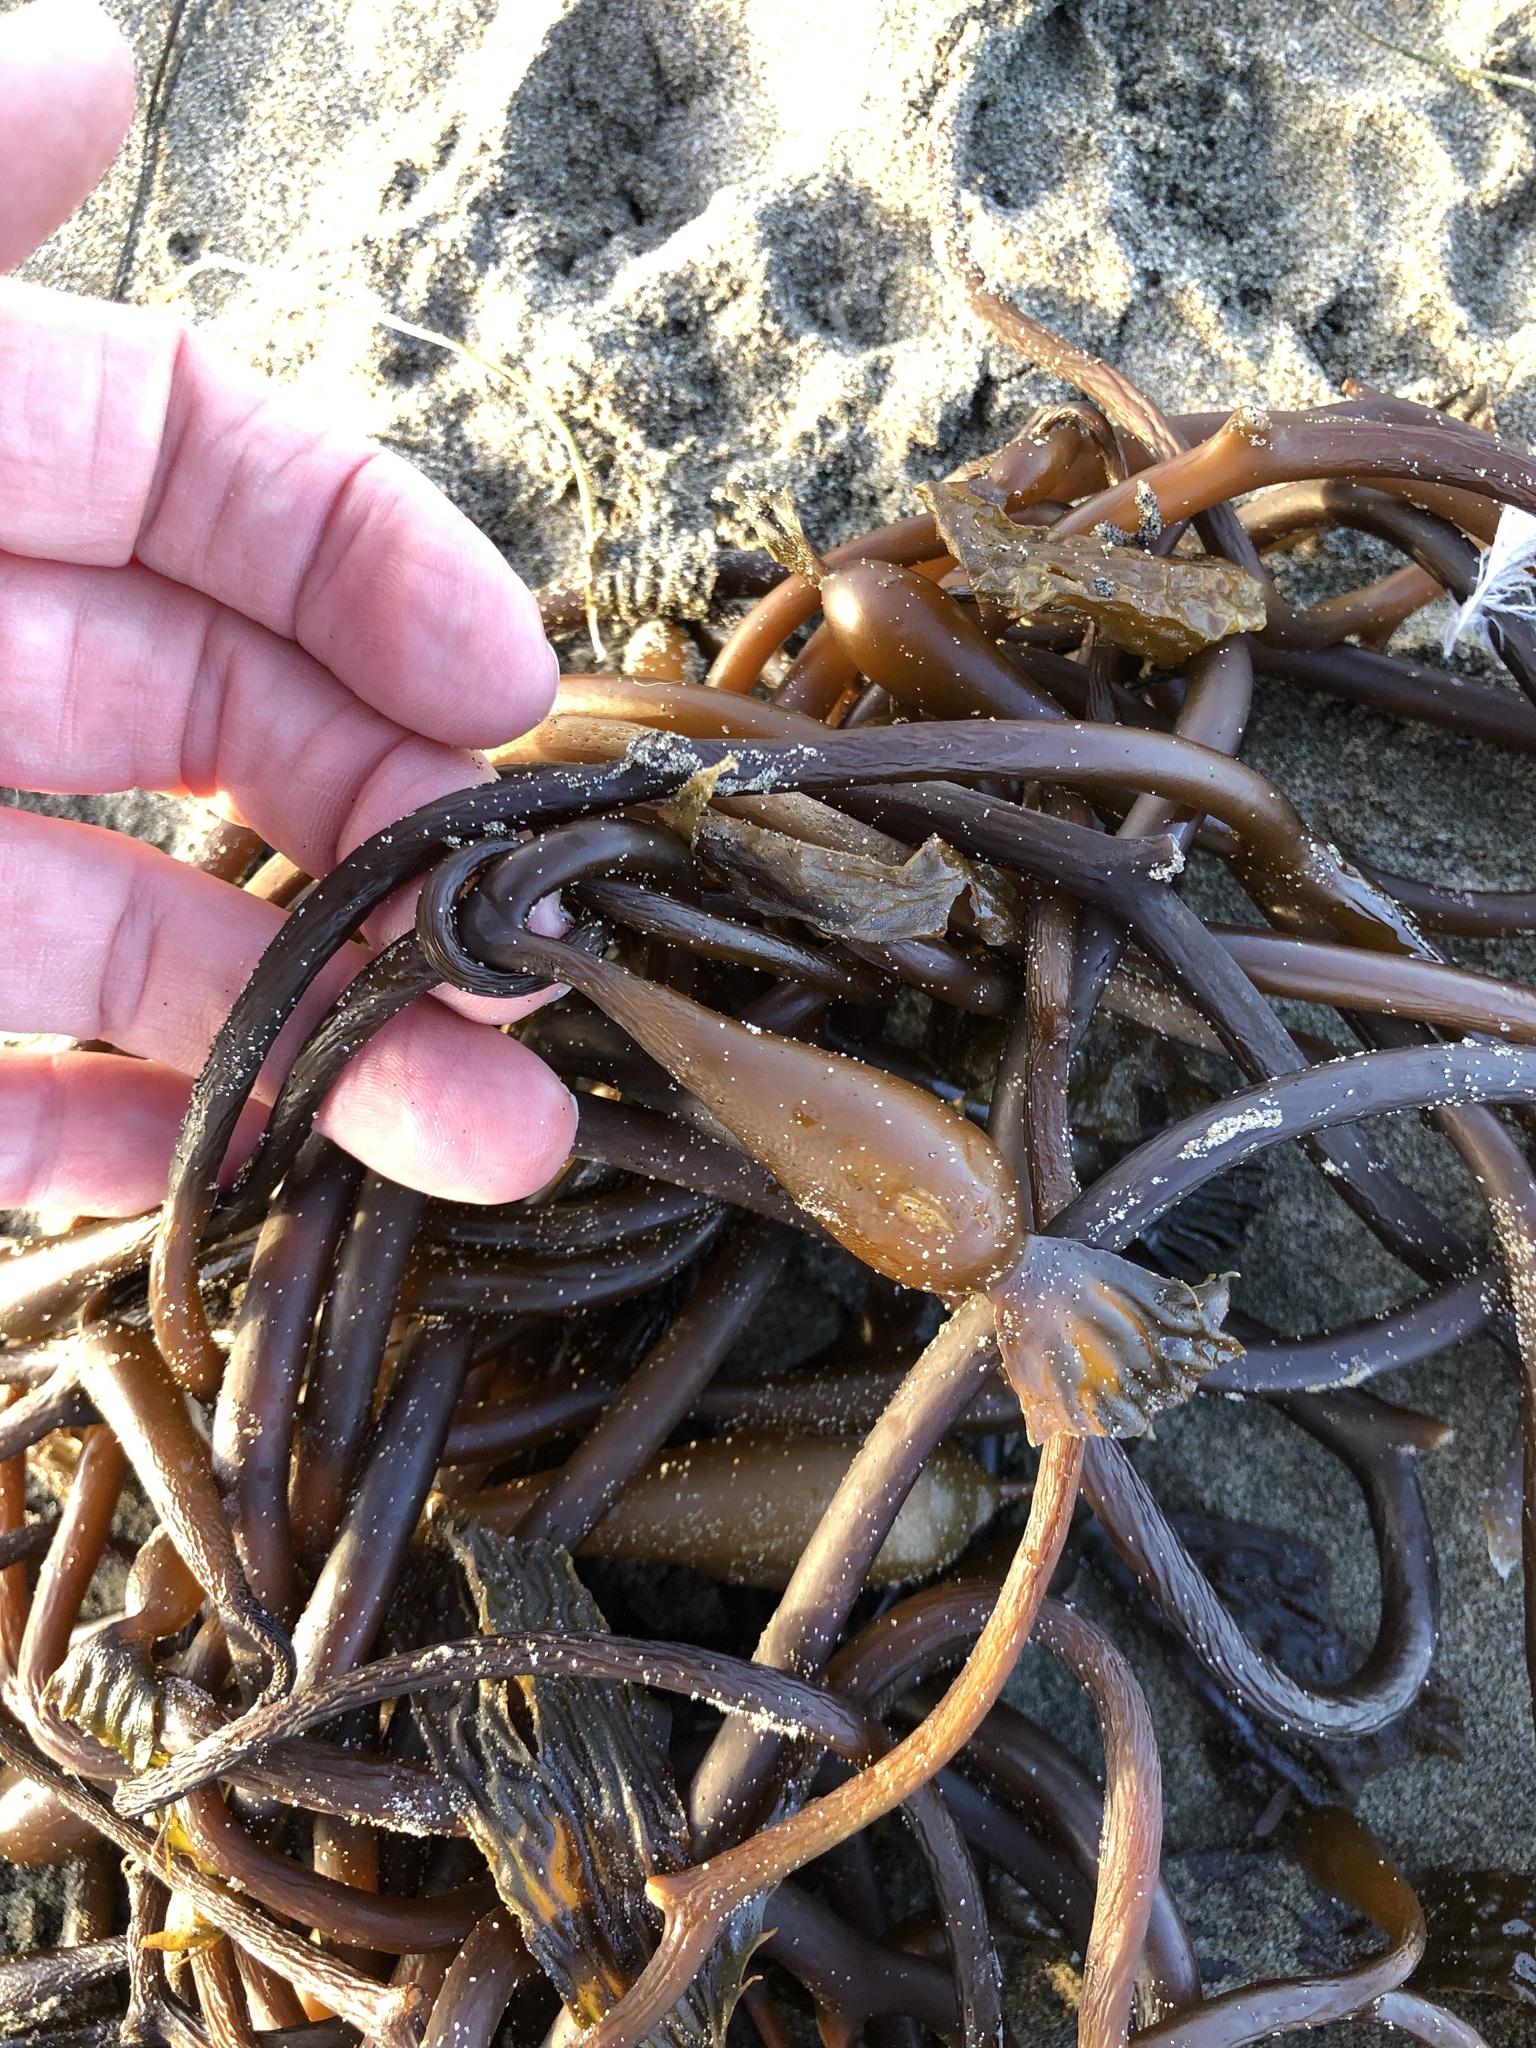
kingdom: Chromista
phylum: Ochrophyta
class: Phaeophyceae
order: Laminariales
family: Laminariaceae
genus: Macrocystis
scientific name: Macrocystis pyrifera
